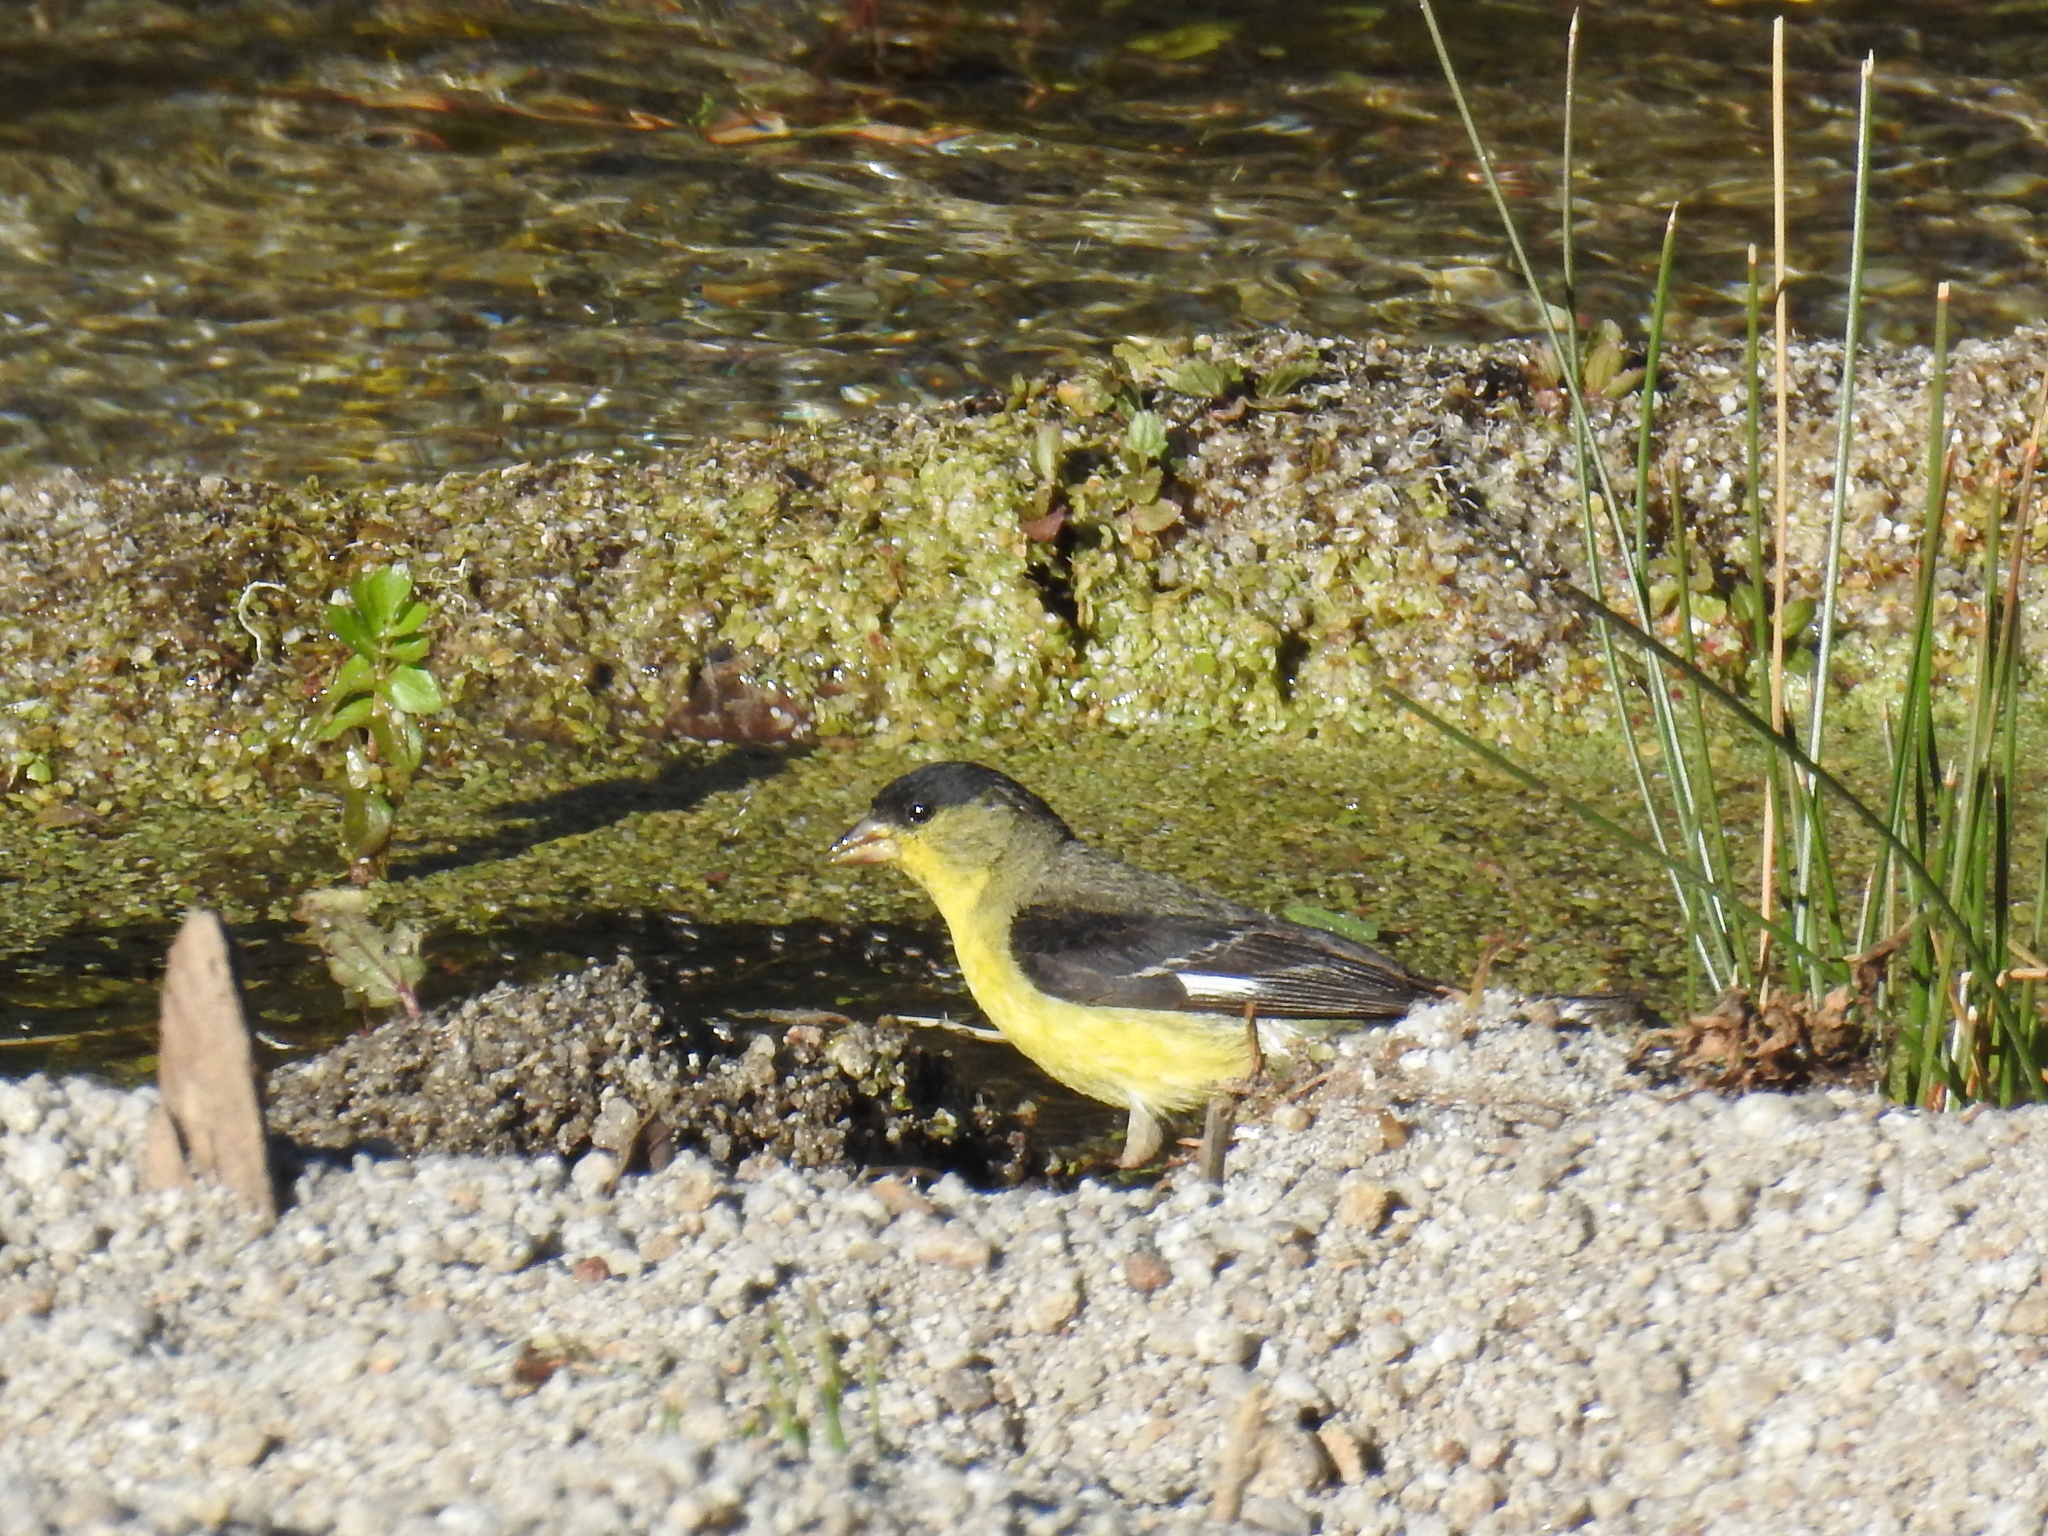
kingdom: Animalia
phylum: Chordata
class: Aves
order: Passeriformes
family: Fringillidae
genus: Spinus
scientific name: Spinus psaltria
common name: Lesser goldfinch
